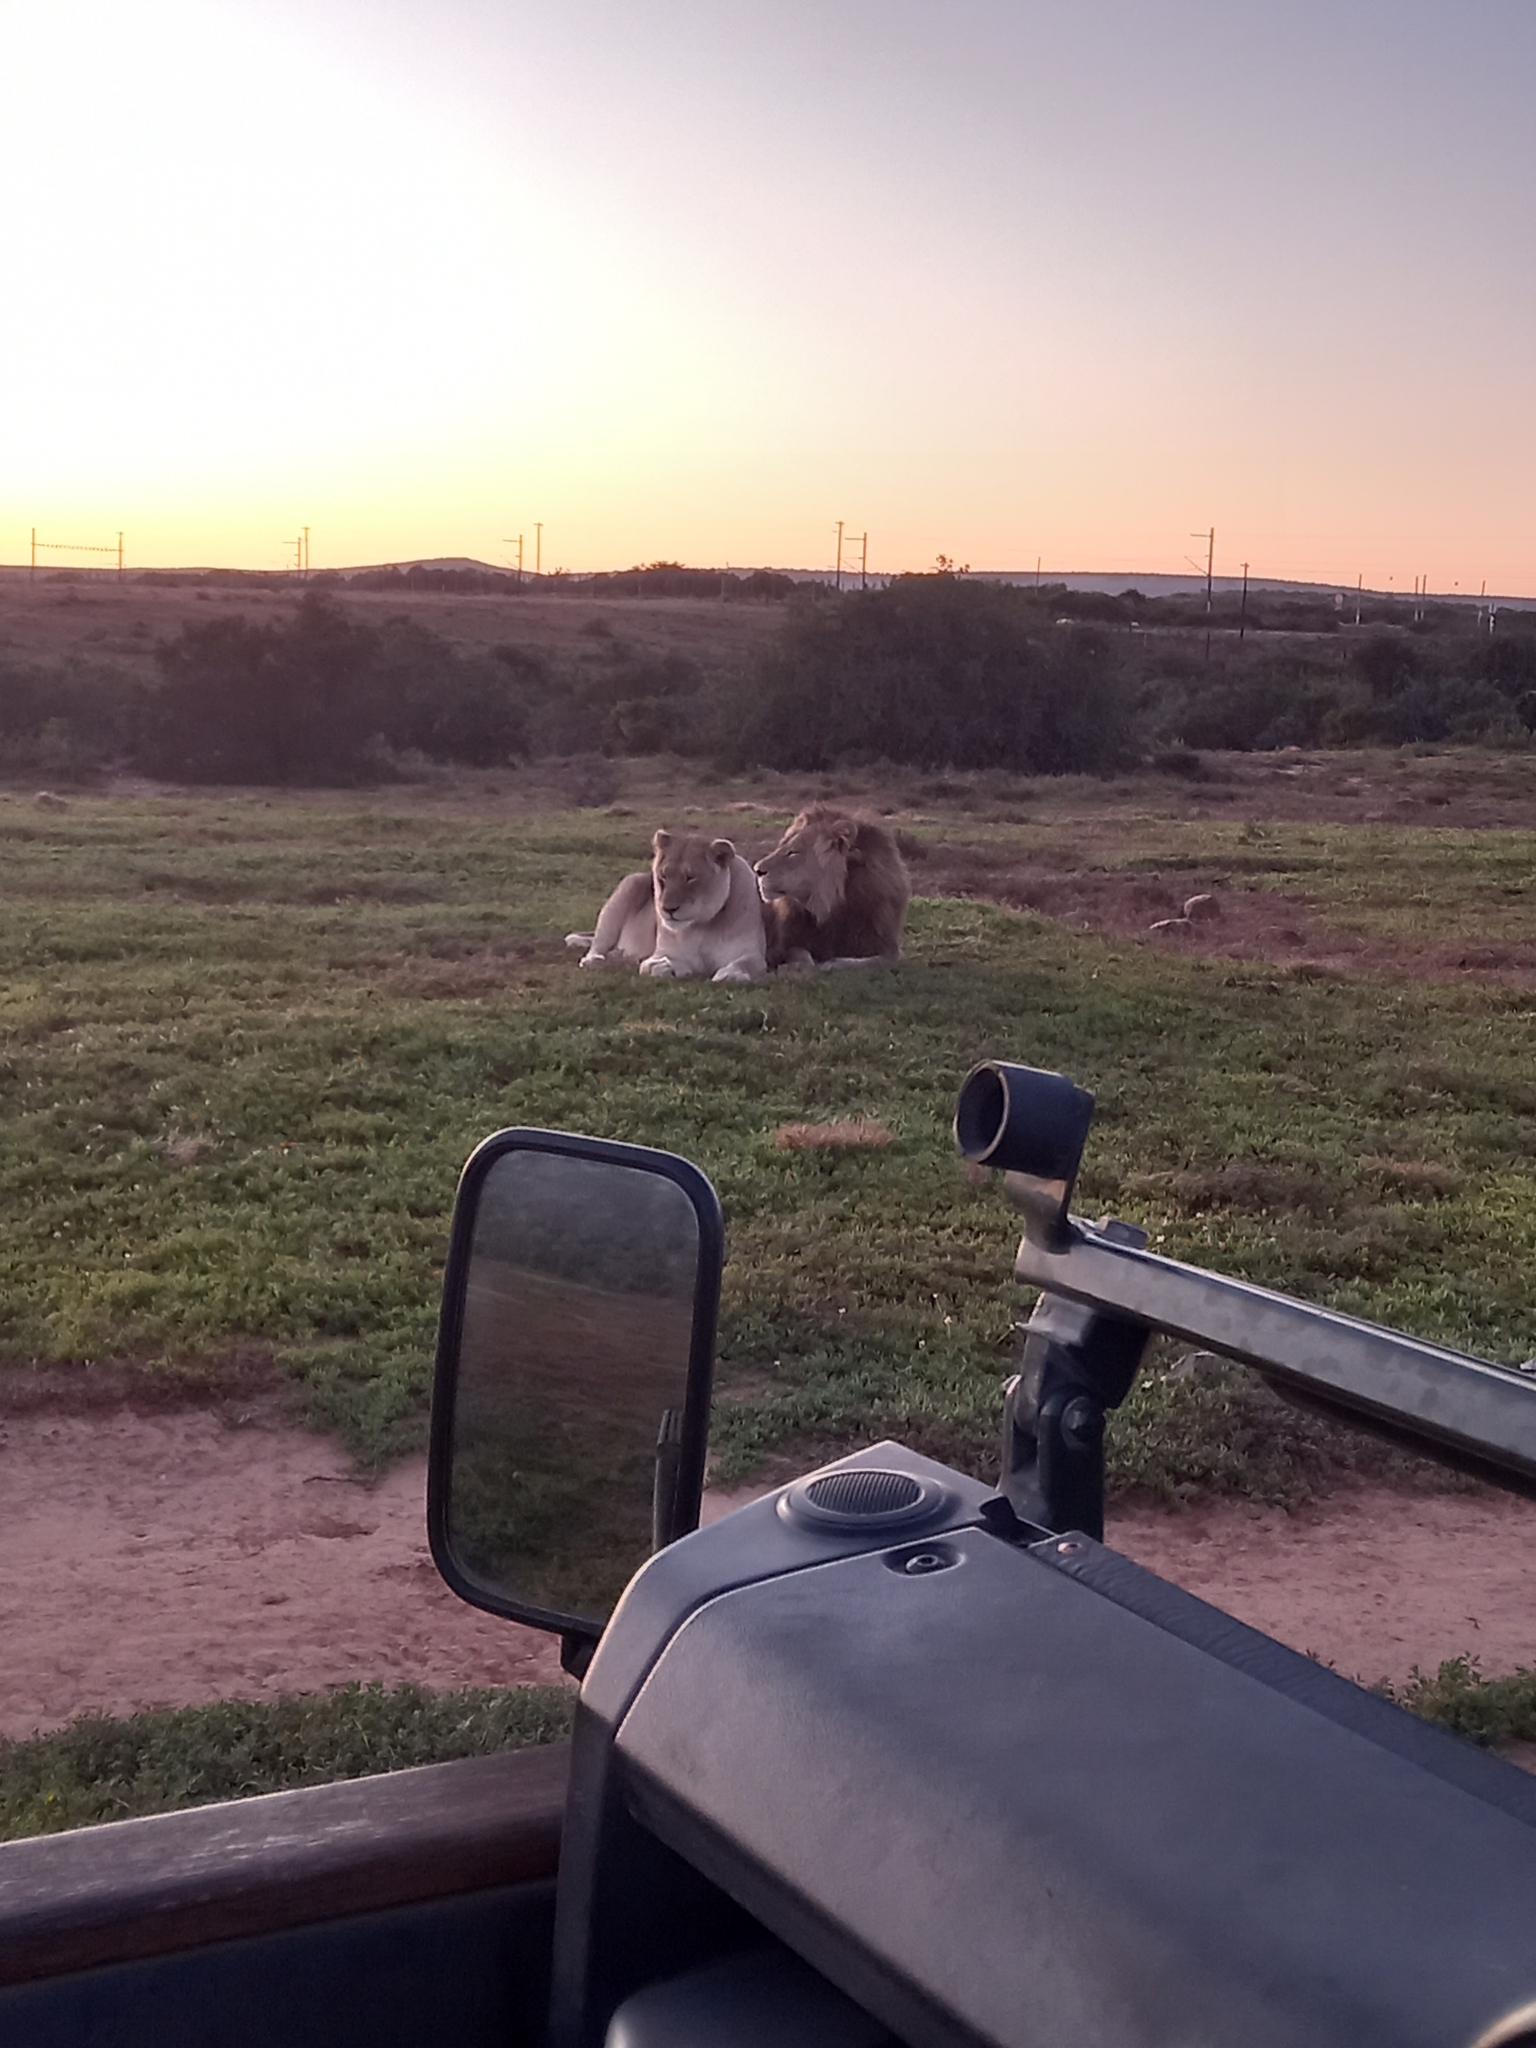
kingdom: Animalia
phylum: Chordata
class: Mammalia
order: Carnivora
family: Felidae
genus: Panthera
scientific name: Panthera leo
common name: Lion
